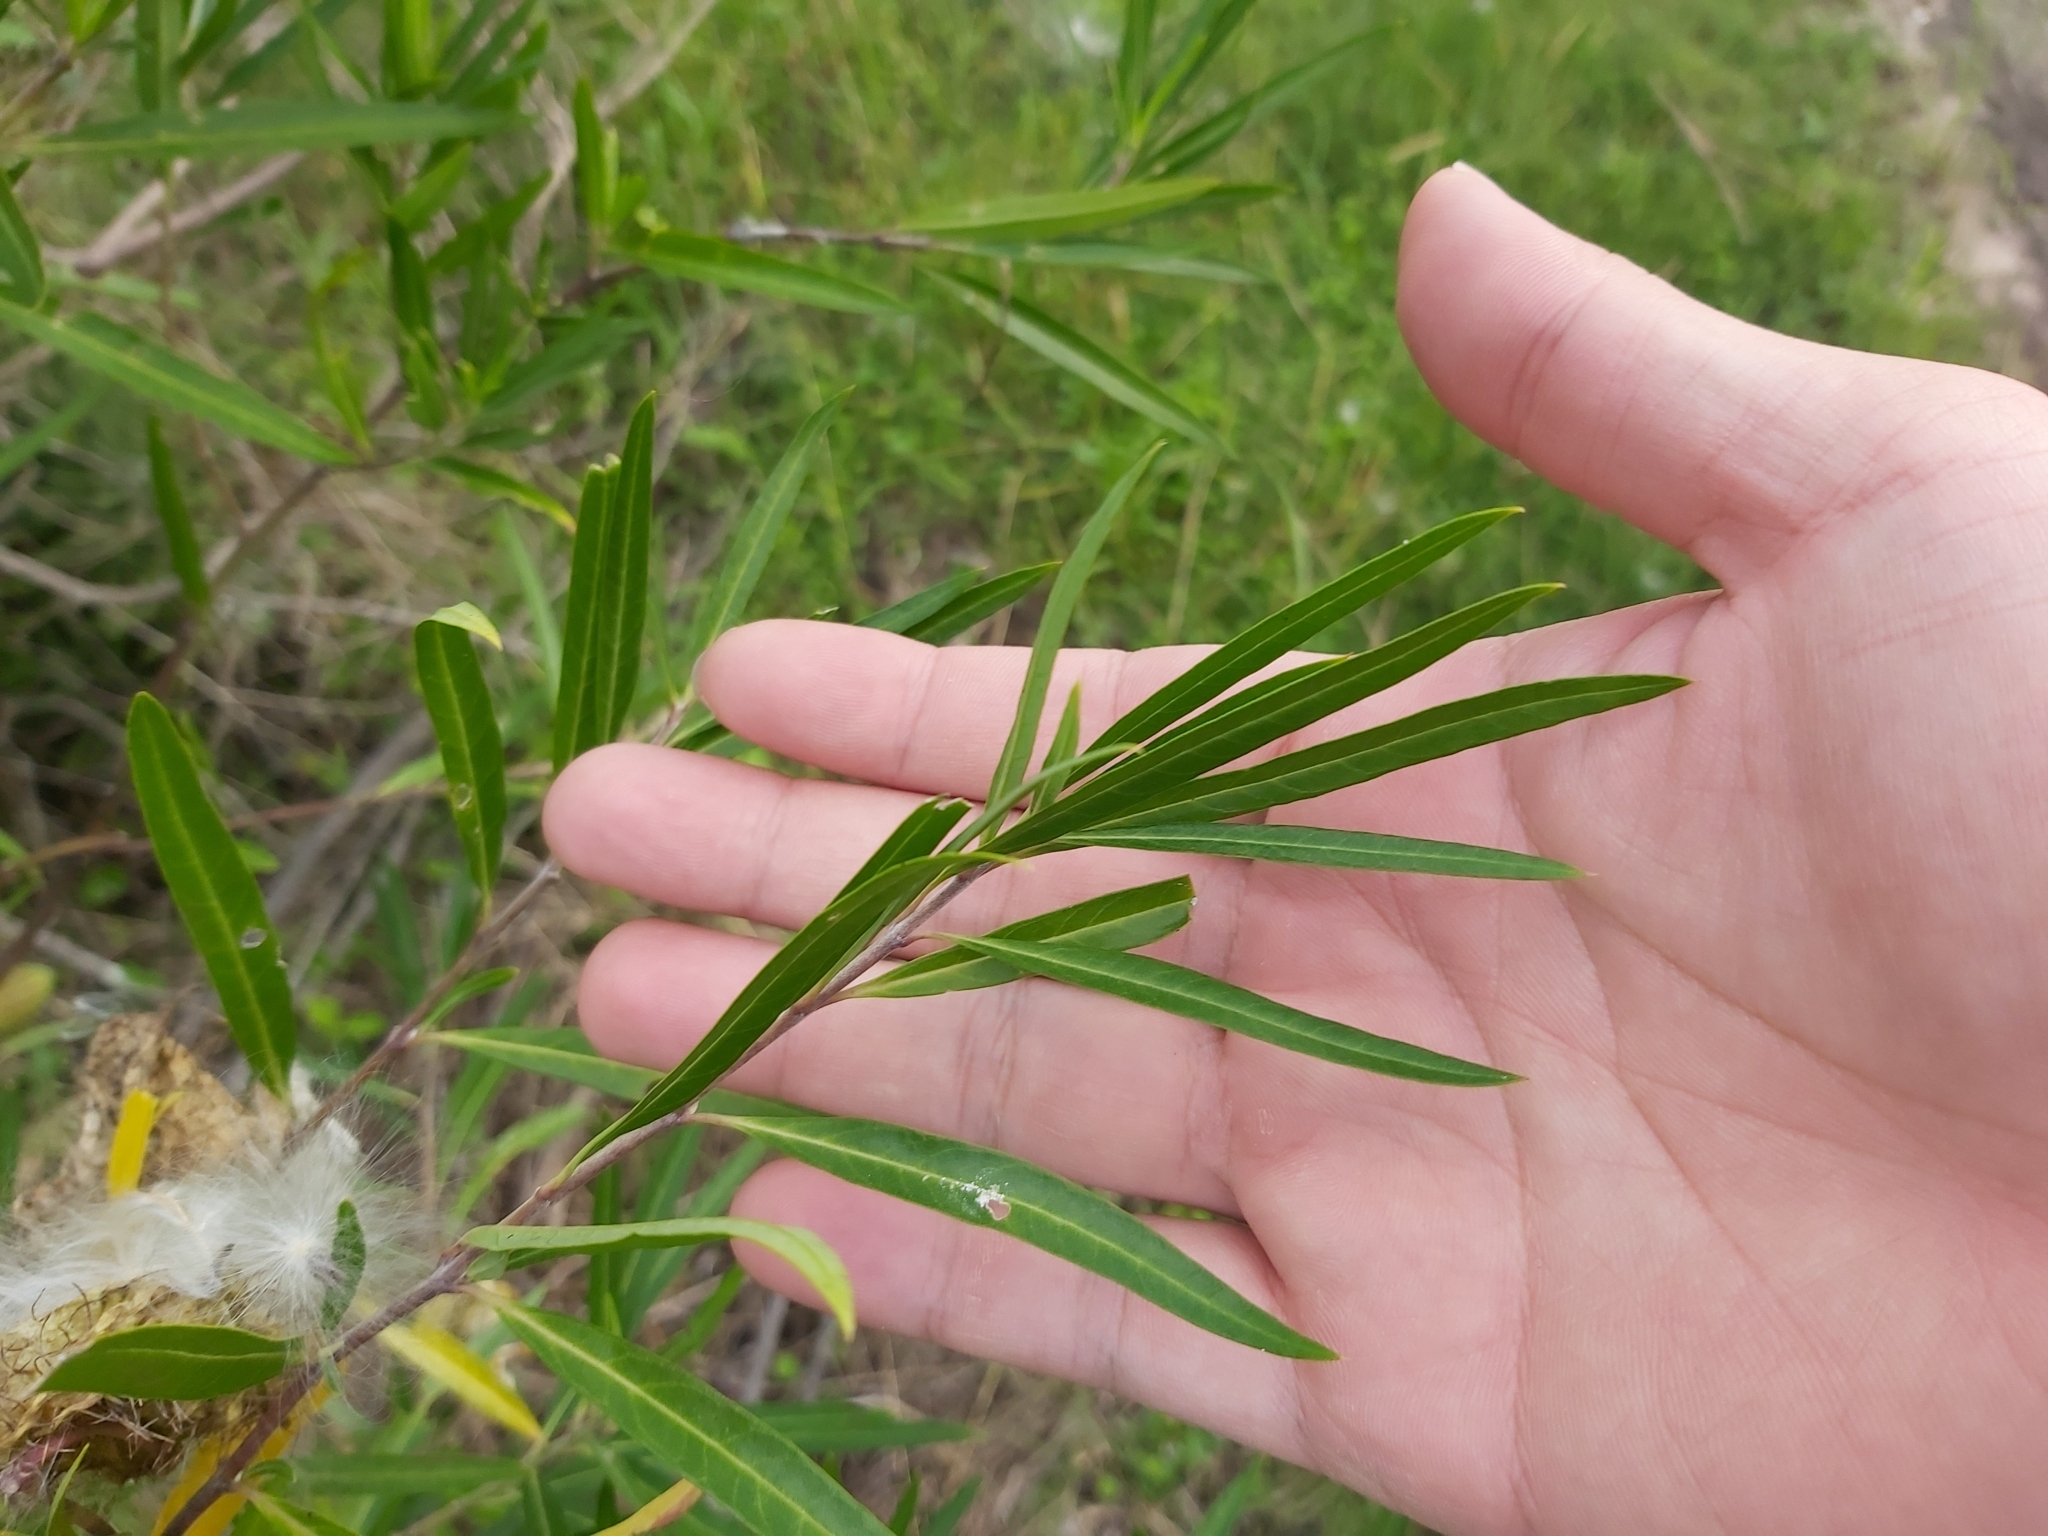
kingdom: Plantae
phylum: Tracheophyta
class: Magnoliopsida
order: Gentianales
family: Apocynaceae
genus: Gomphocarpus
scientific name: Gomphocarpus fruticosus
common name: Milkweed
